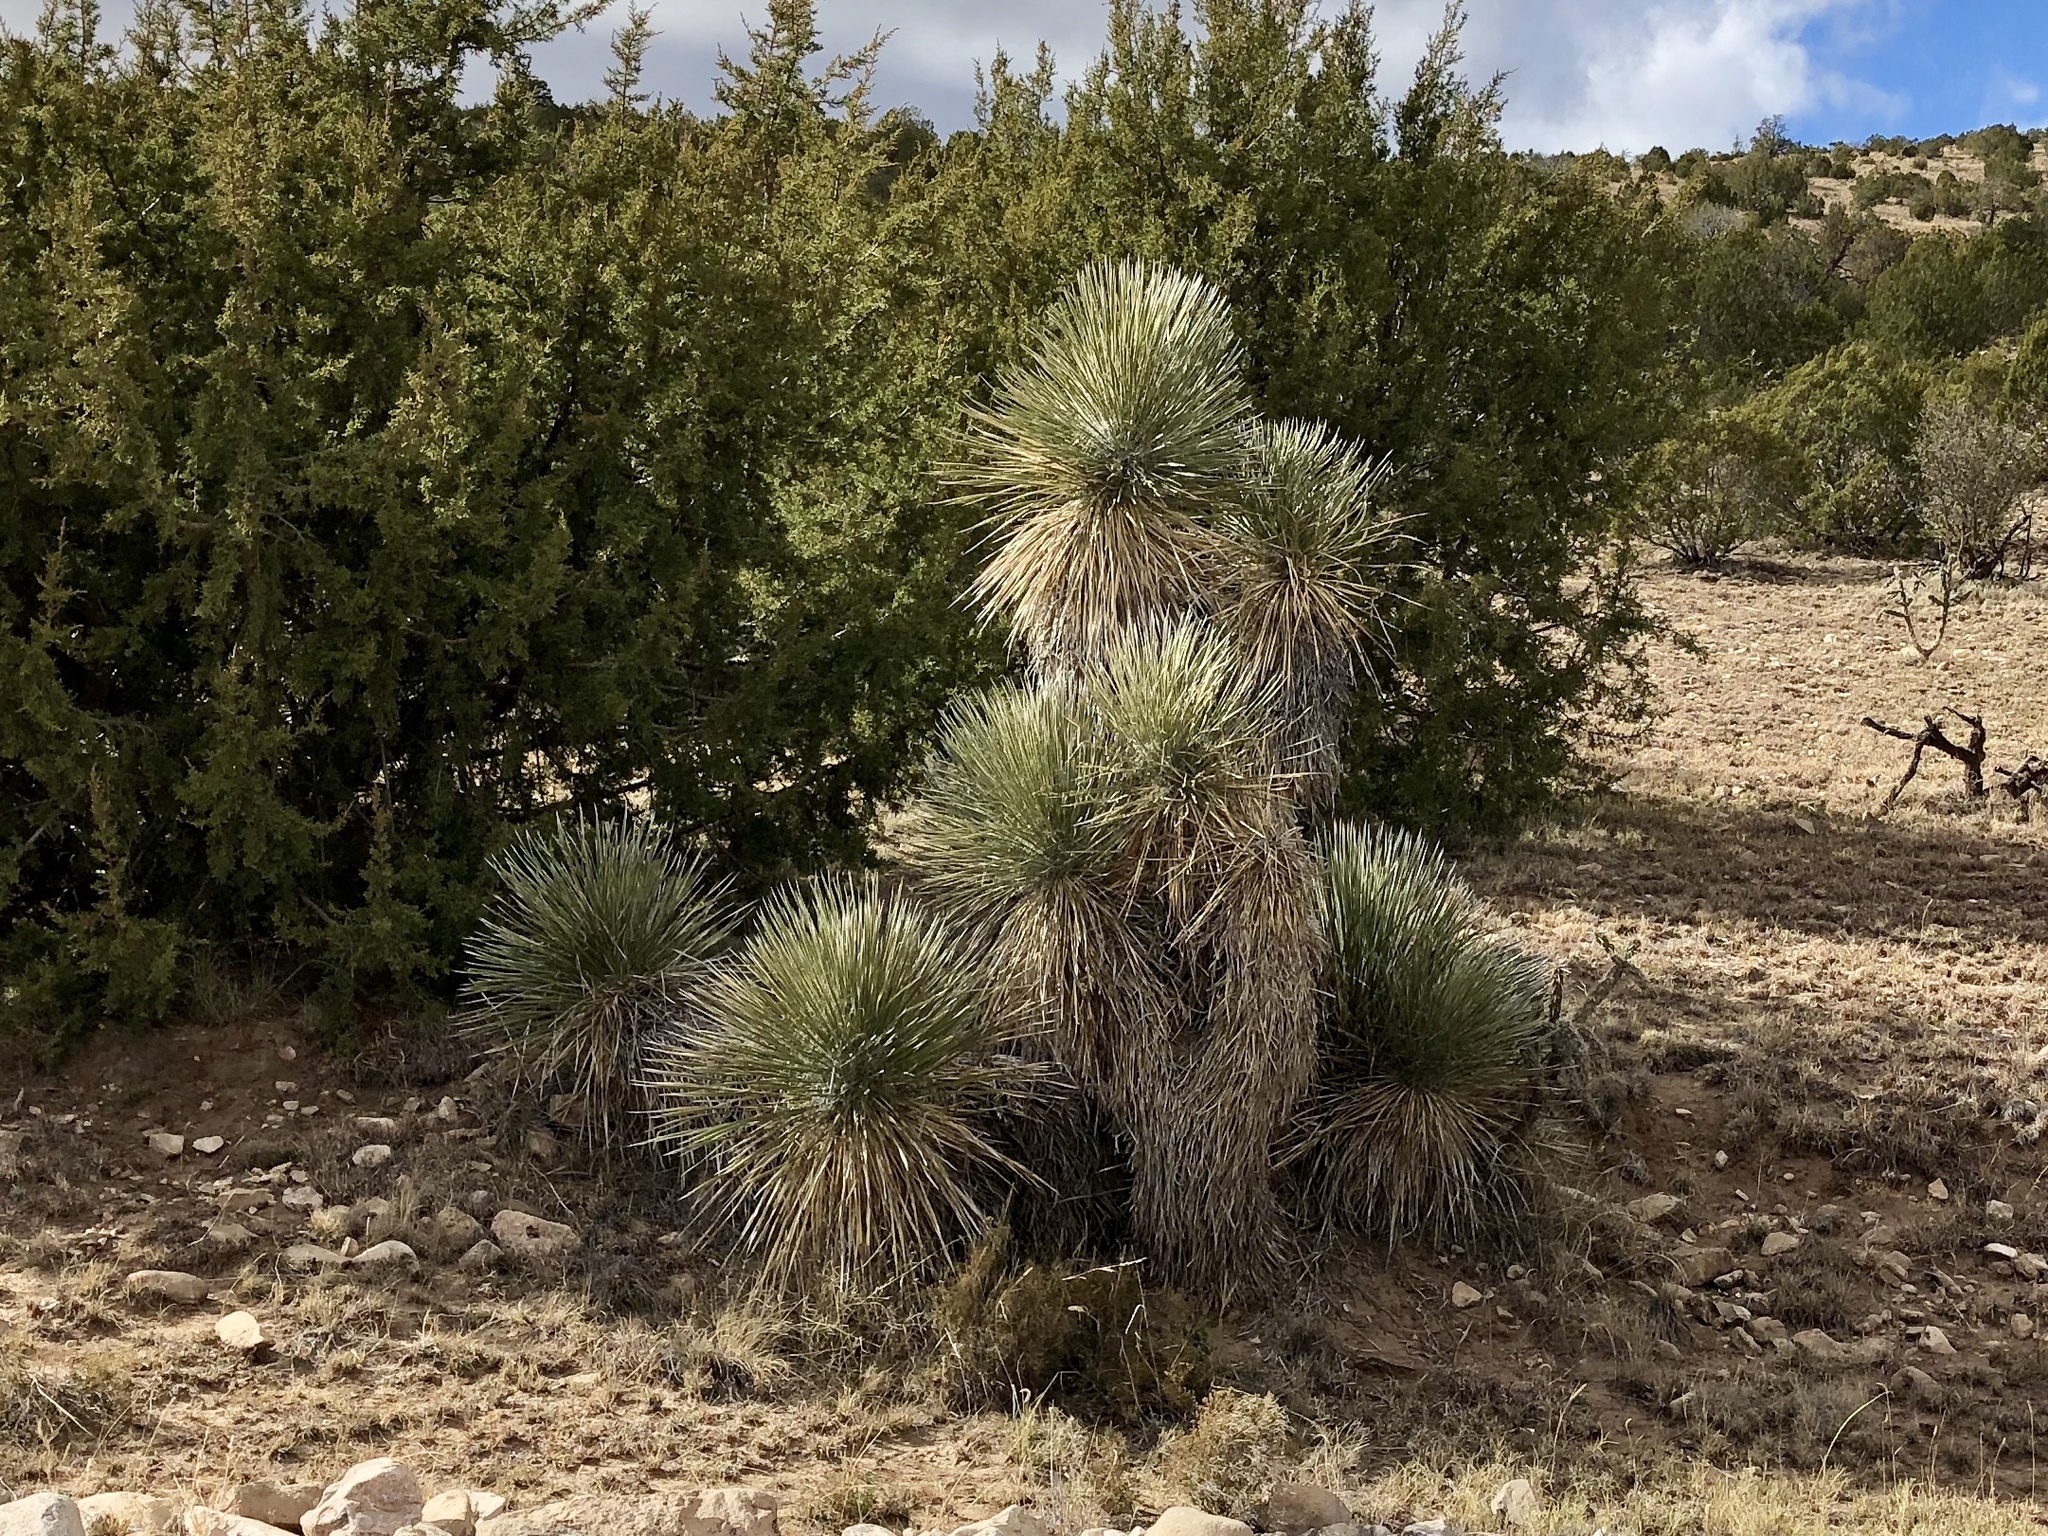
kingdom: Plantae
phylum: Tracheophyta
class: Liliopsida
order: Asparagales
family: Asparagaceae
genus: Yucca
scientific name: Yucca elata
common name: Palmella
